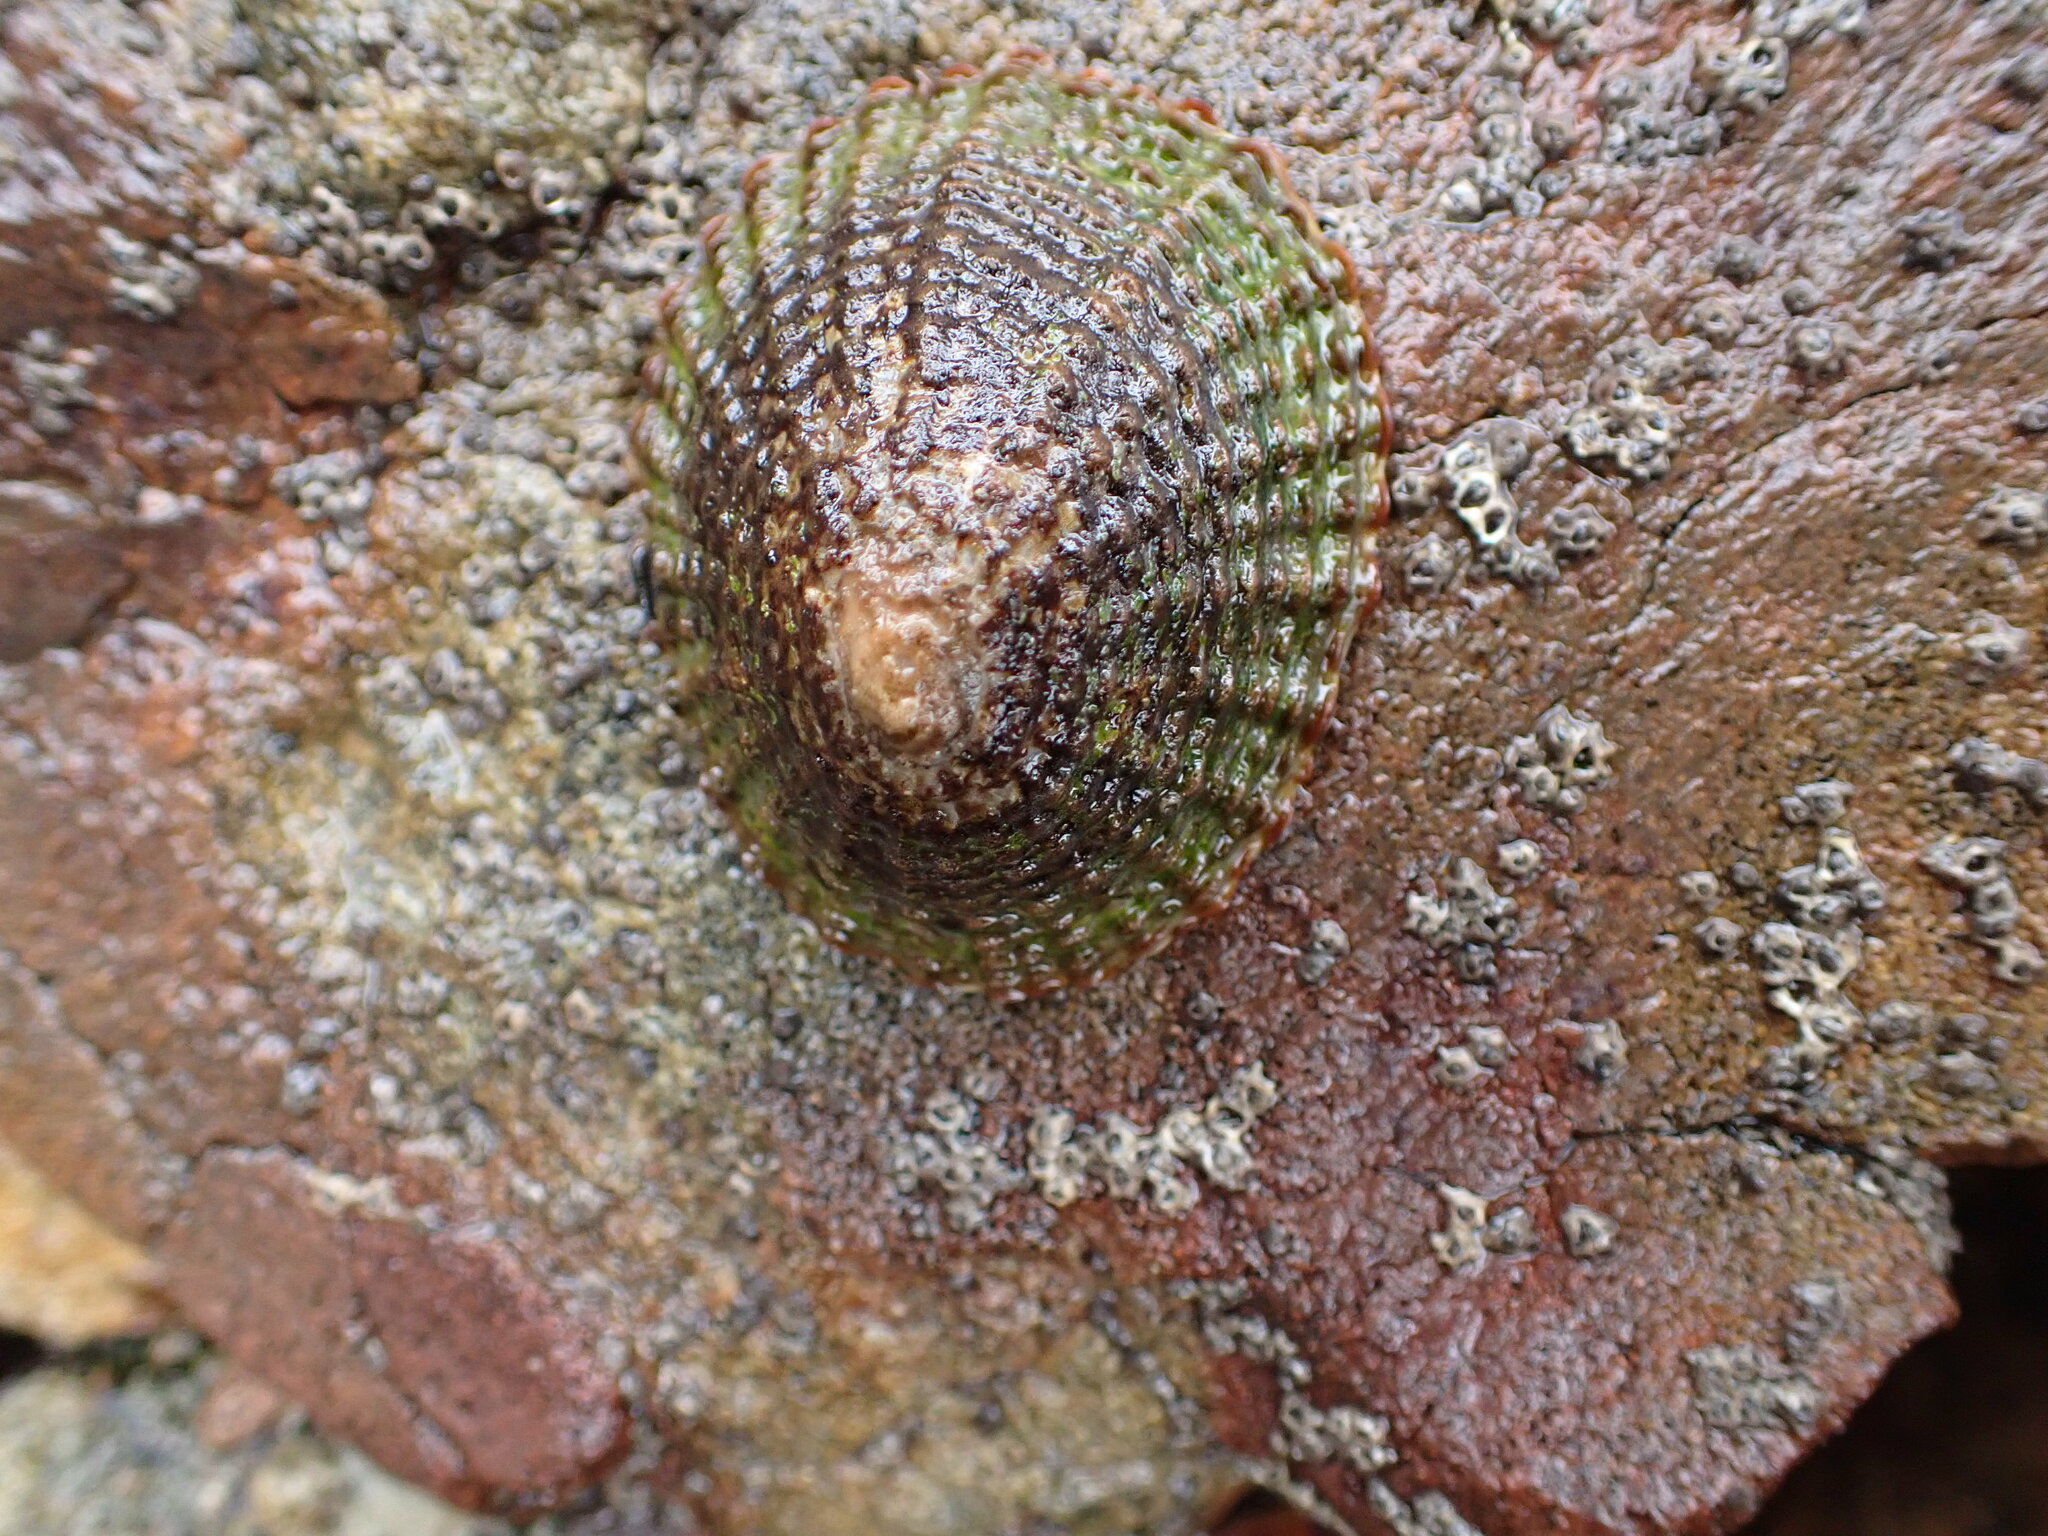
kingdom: Animalia
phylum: Mollusca
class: Gastropoda
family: Nacellidae
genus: Cellana
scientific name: Cellana denticulata
